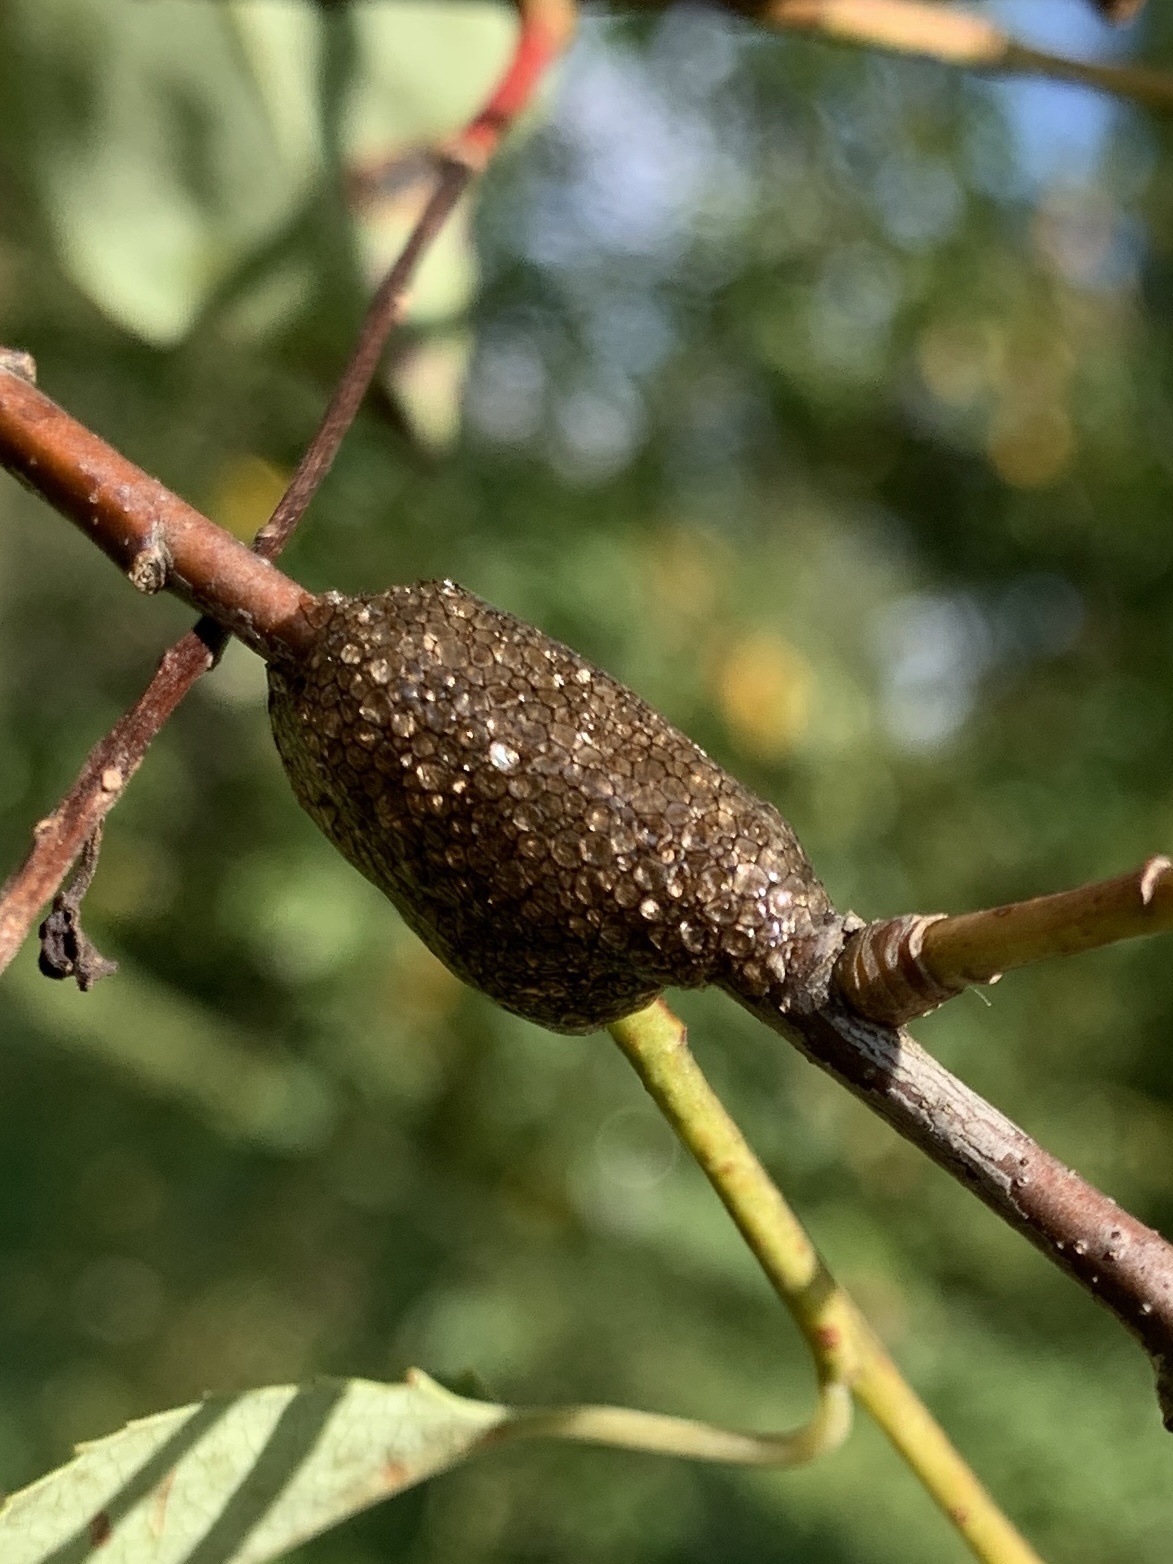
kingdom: Animalia
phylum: Arthropoda
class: Insecta
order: Lepidoptera
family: Lasiocampidae
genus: Malacosoma
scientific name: Malacosoma americana
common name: Eastern tent caterpillar moth
